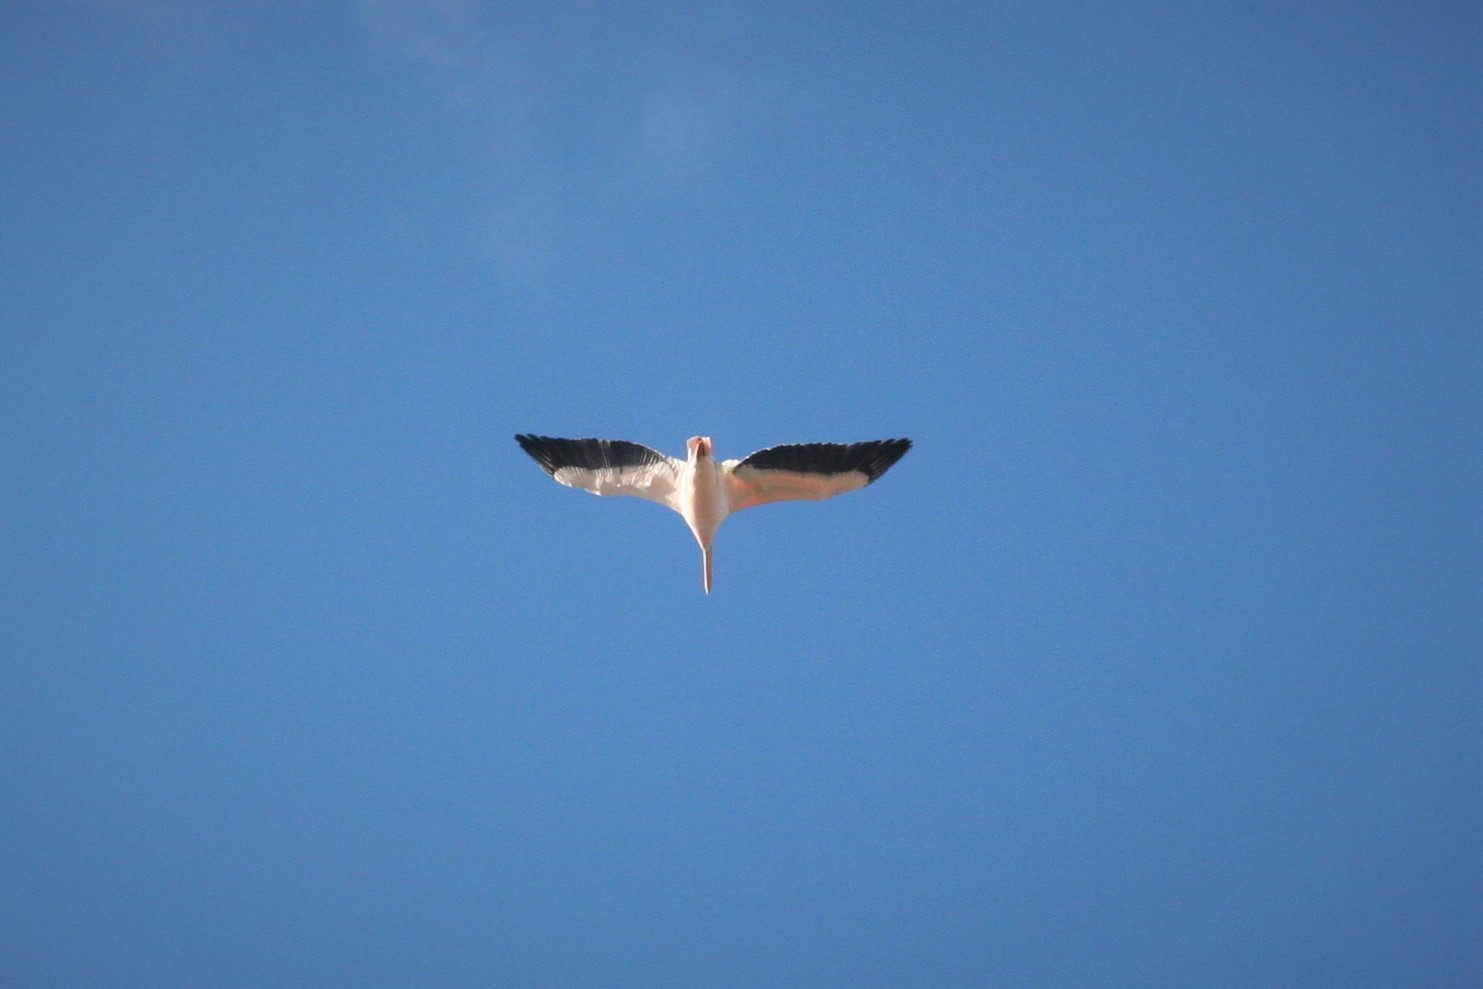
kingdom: Animalia
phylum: Chordata
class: Aves
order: Pelecaniformes
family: Pelecanidae
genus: Pelecanus
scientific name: Pelecanus onocrotalus
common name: Great white pelican
